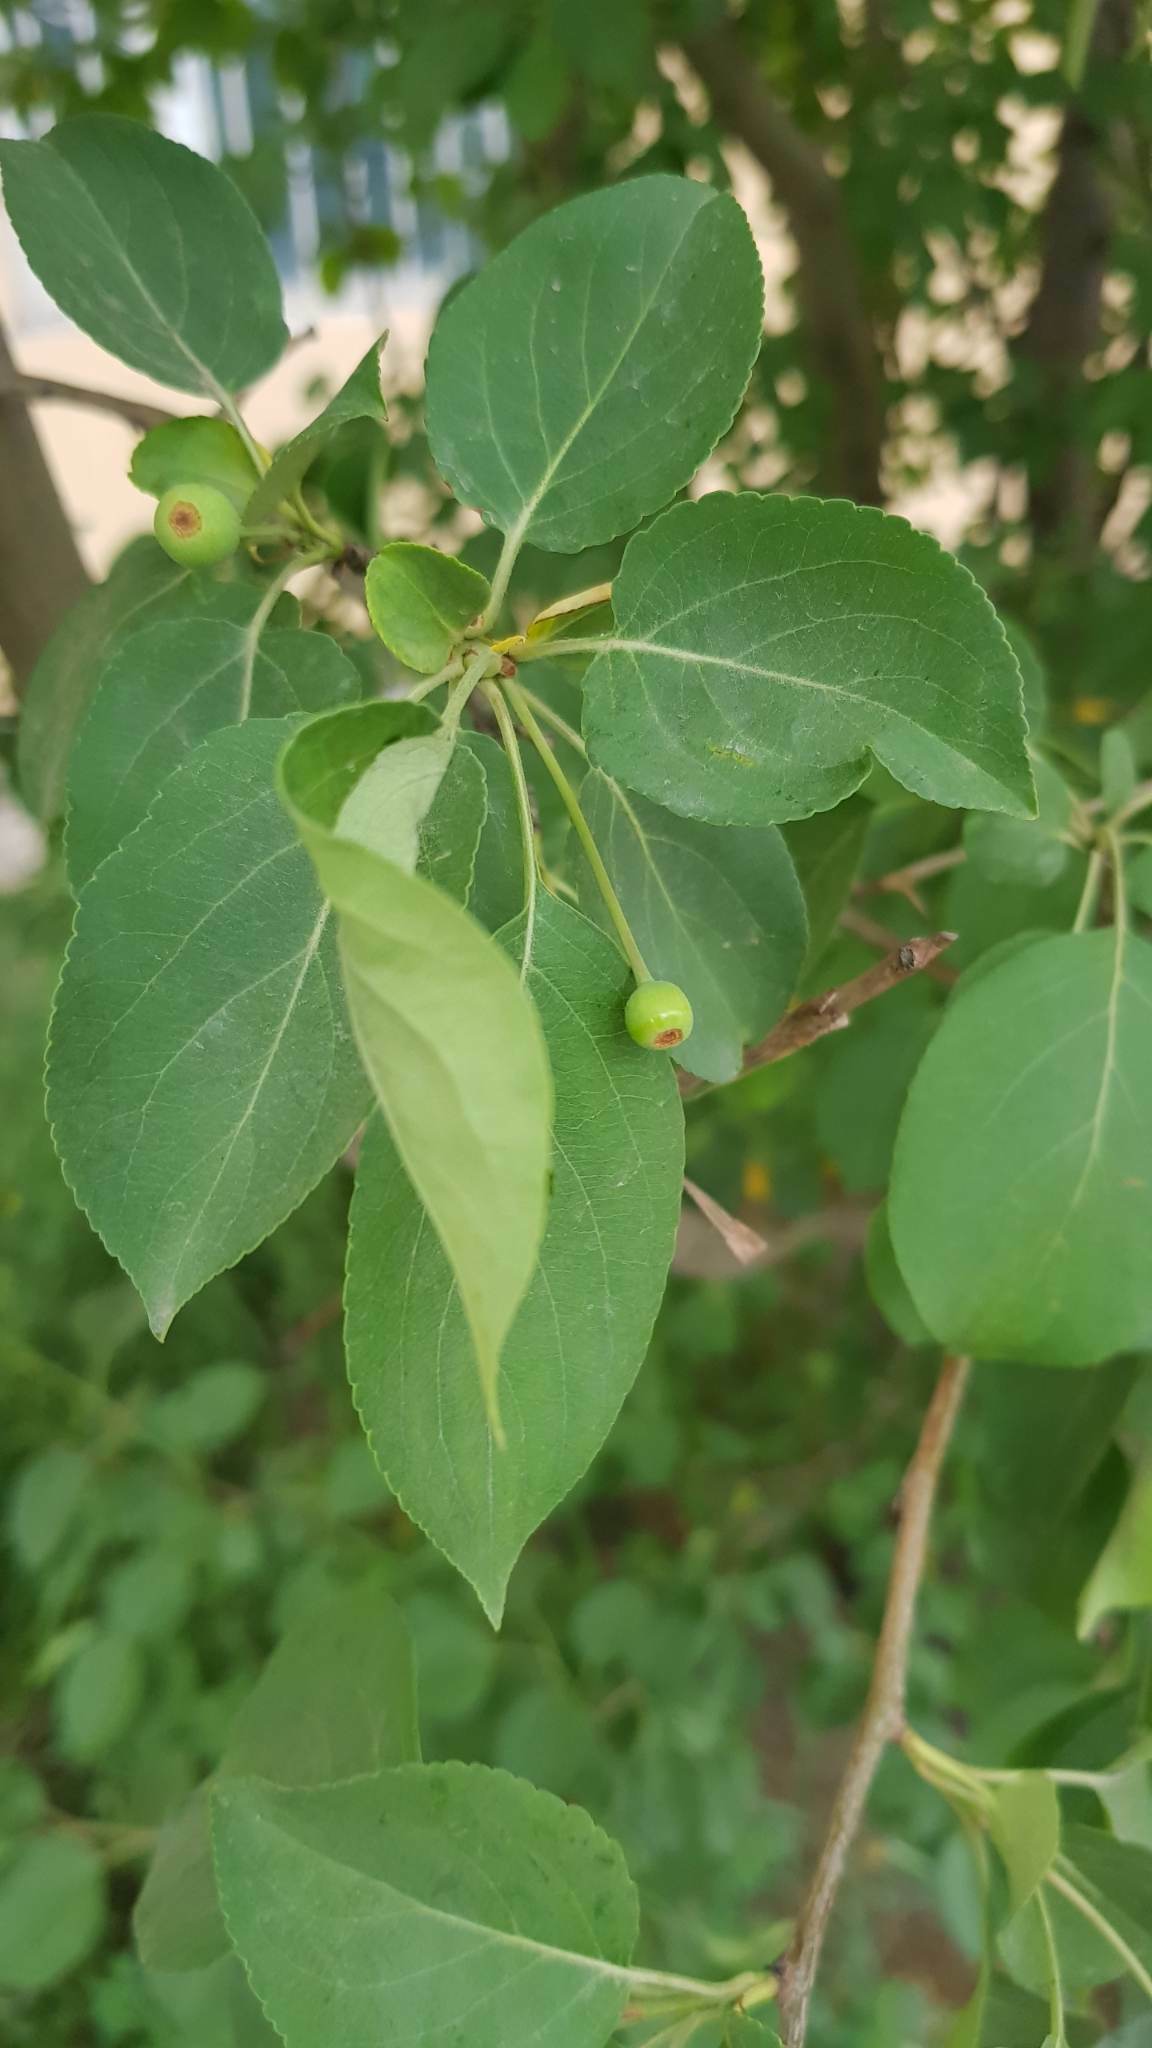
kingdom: Plantae
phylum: Tracheophyta
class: Magnoliopsida
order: Rosales
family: Rosaceae
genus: Malus
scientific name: Malus baccata
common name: Siberian crab
